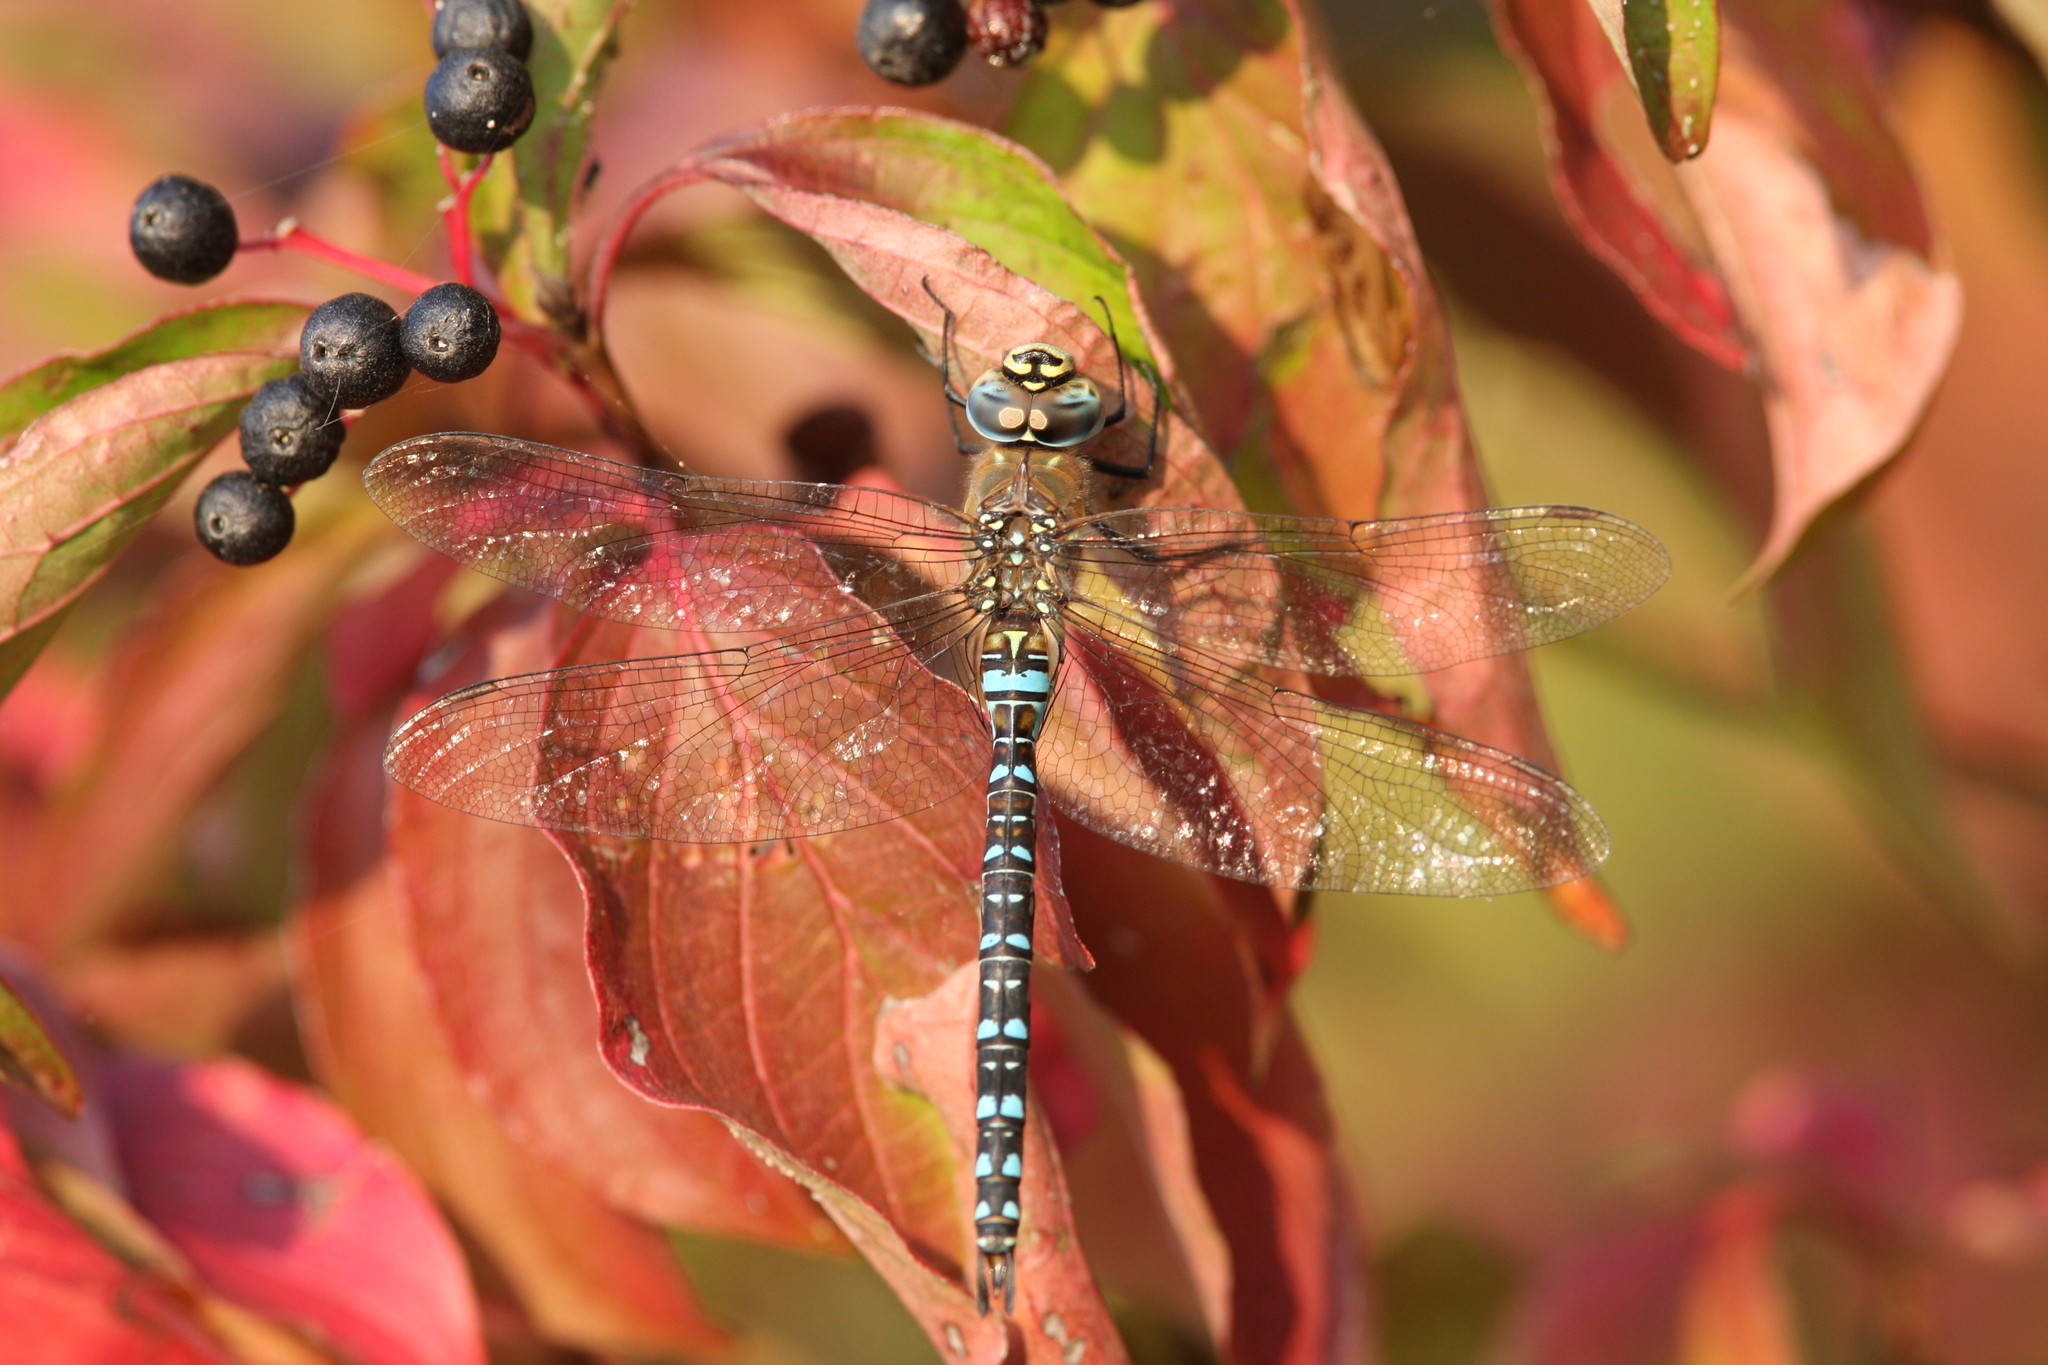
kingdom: Animalia
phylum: Arthropoda
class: Insecta
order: Odonata
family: Aeshnidae
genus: Aeshna
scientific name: Aeshna mixta
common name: Migrant hawker
